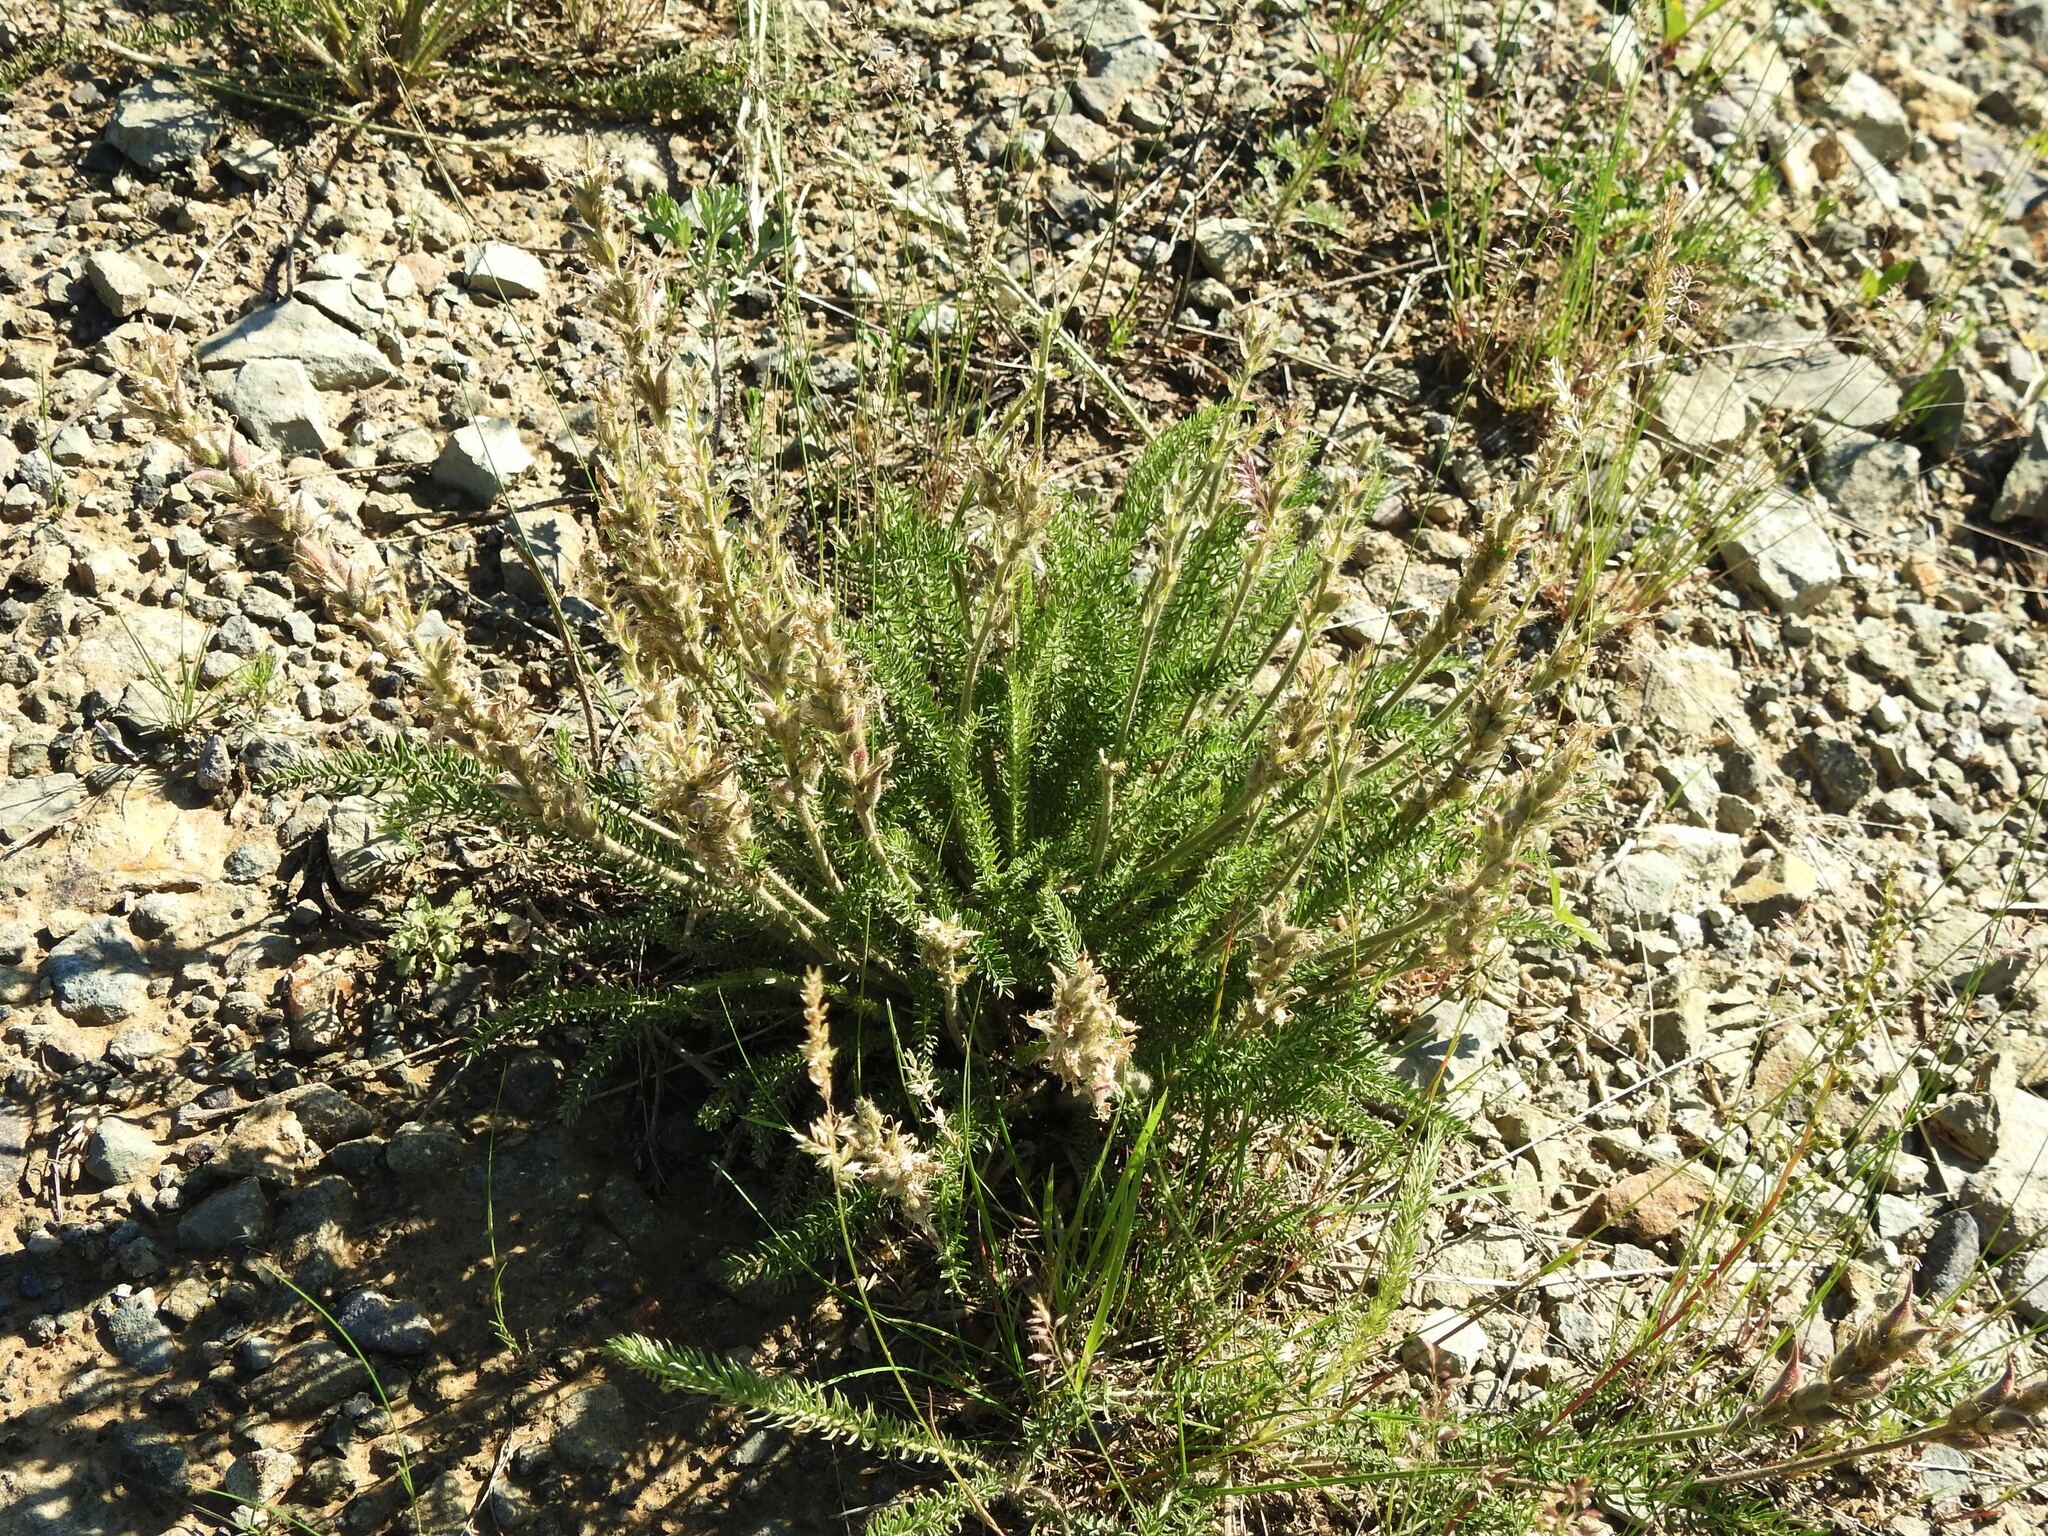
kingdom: Plantae
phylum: Tracheophyta
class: Magnoliopsida
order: Fabales
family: Fabaceae
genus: Oxytropis
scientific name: Oxytropis myriophylla
